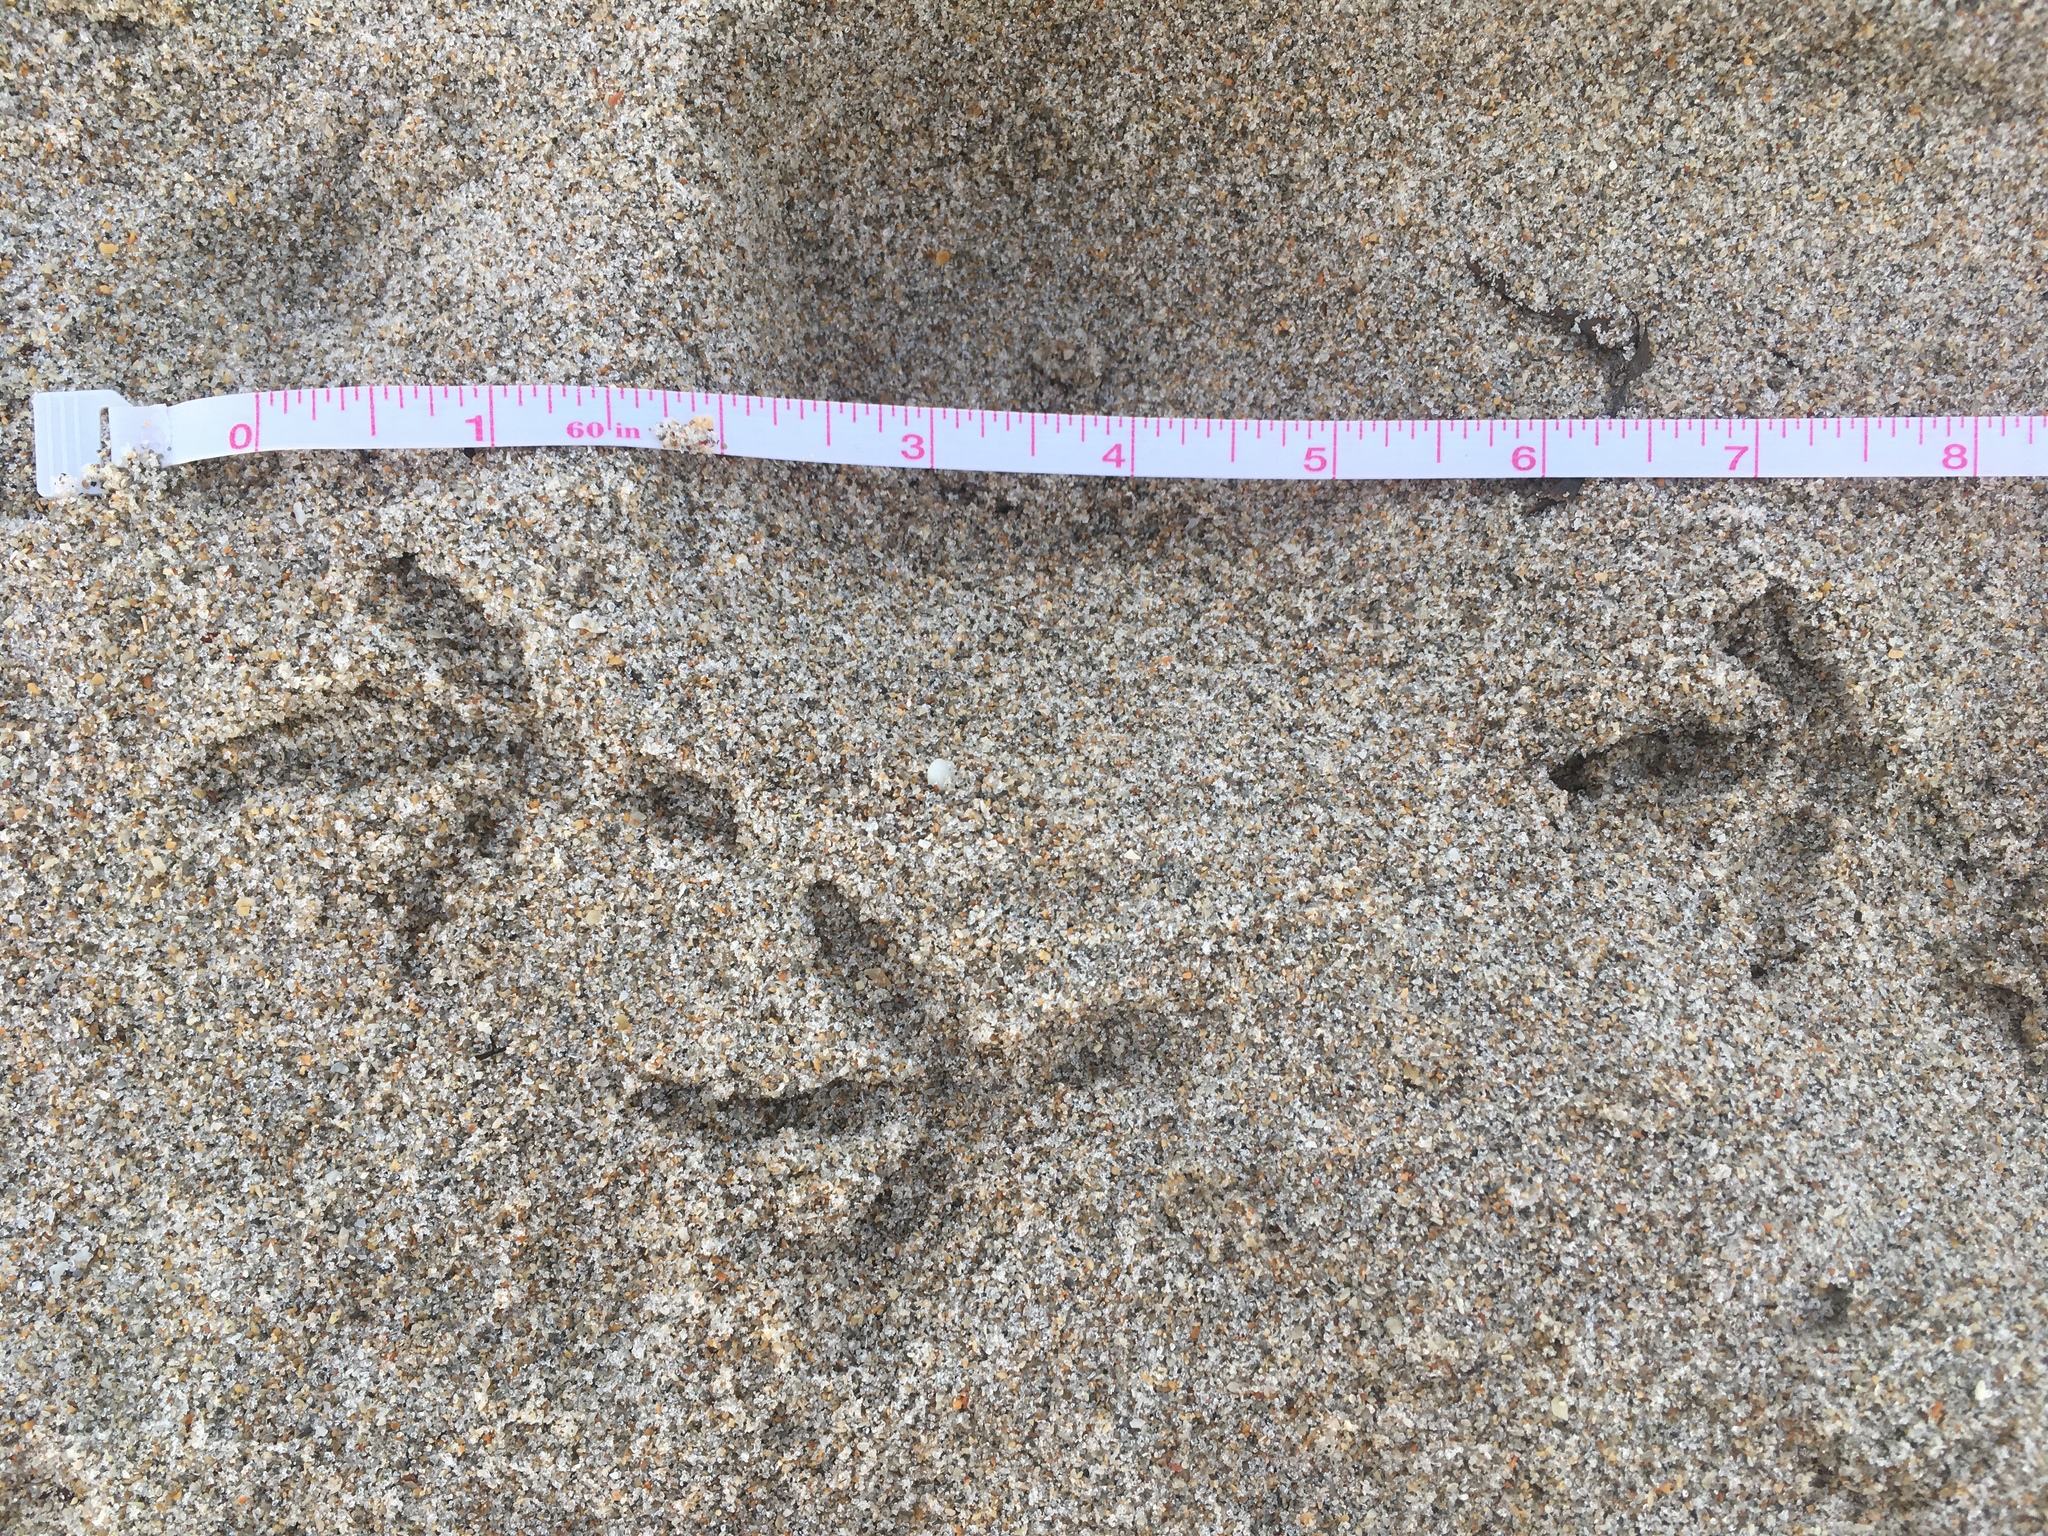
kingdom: Animalia
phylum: Chordata
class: Aves
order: Columbiformes
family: Columbidae
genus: Columba
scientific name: Columba livia
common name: Rock pigeon
